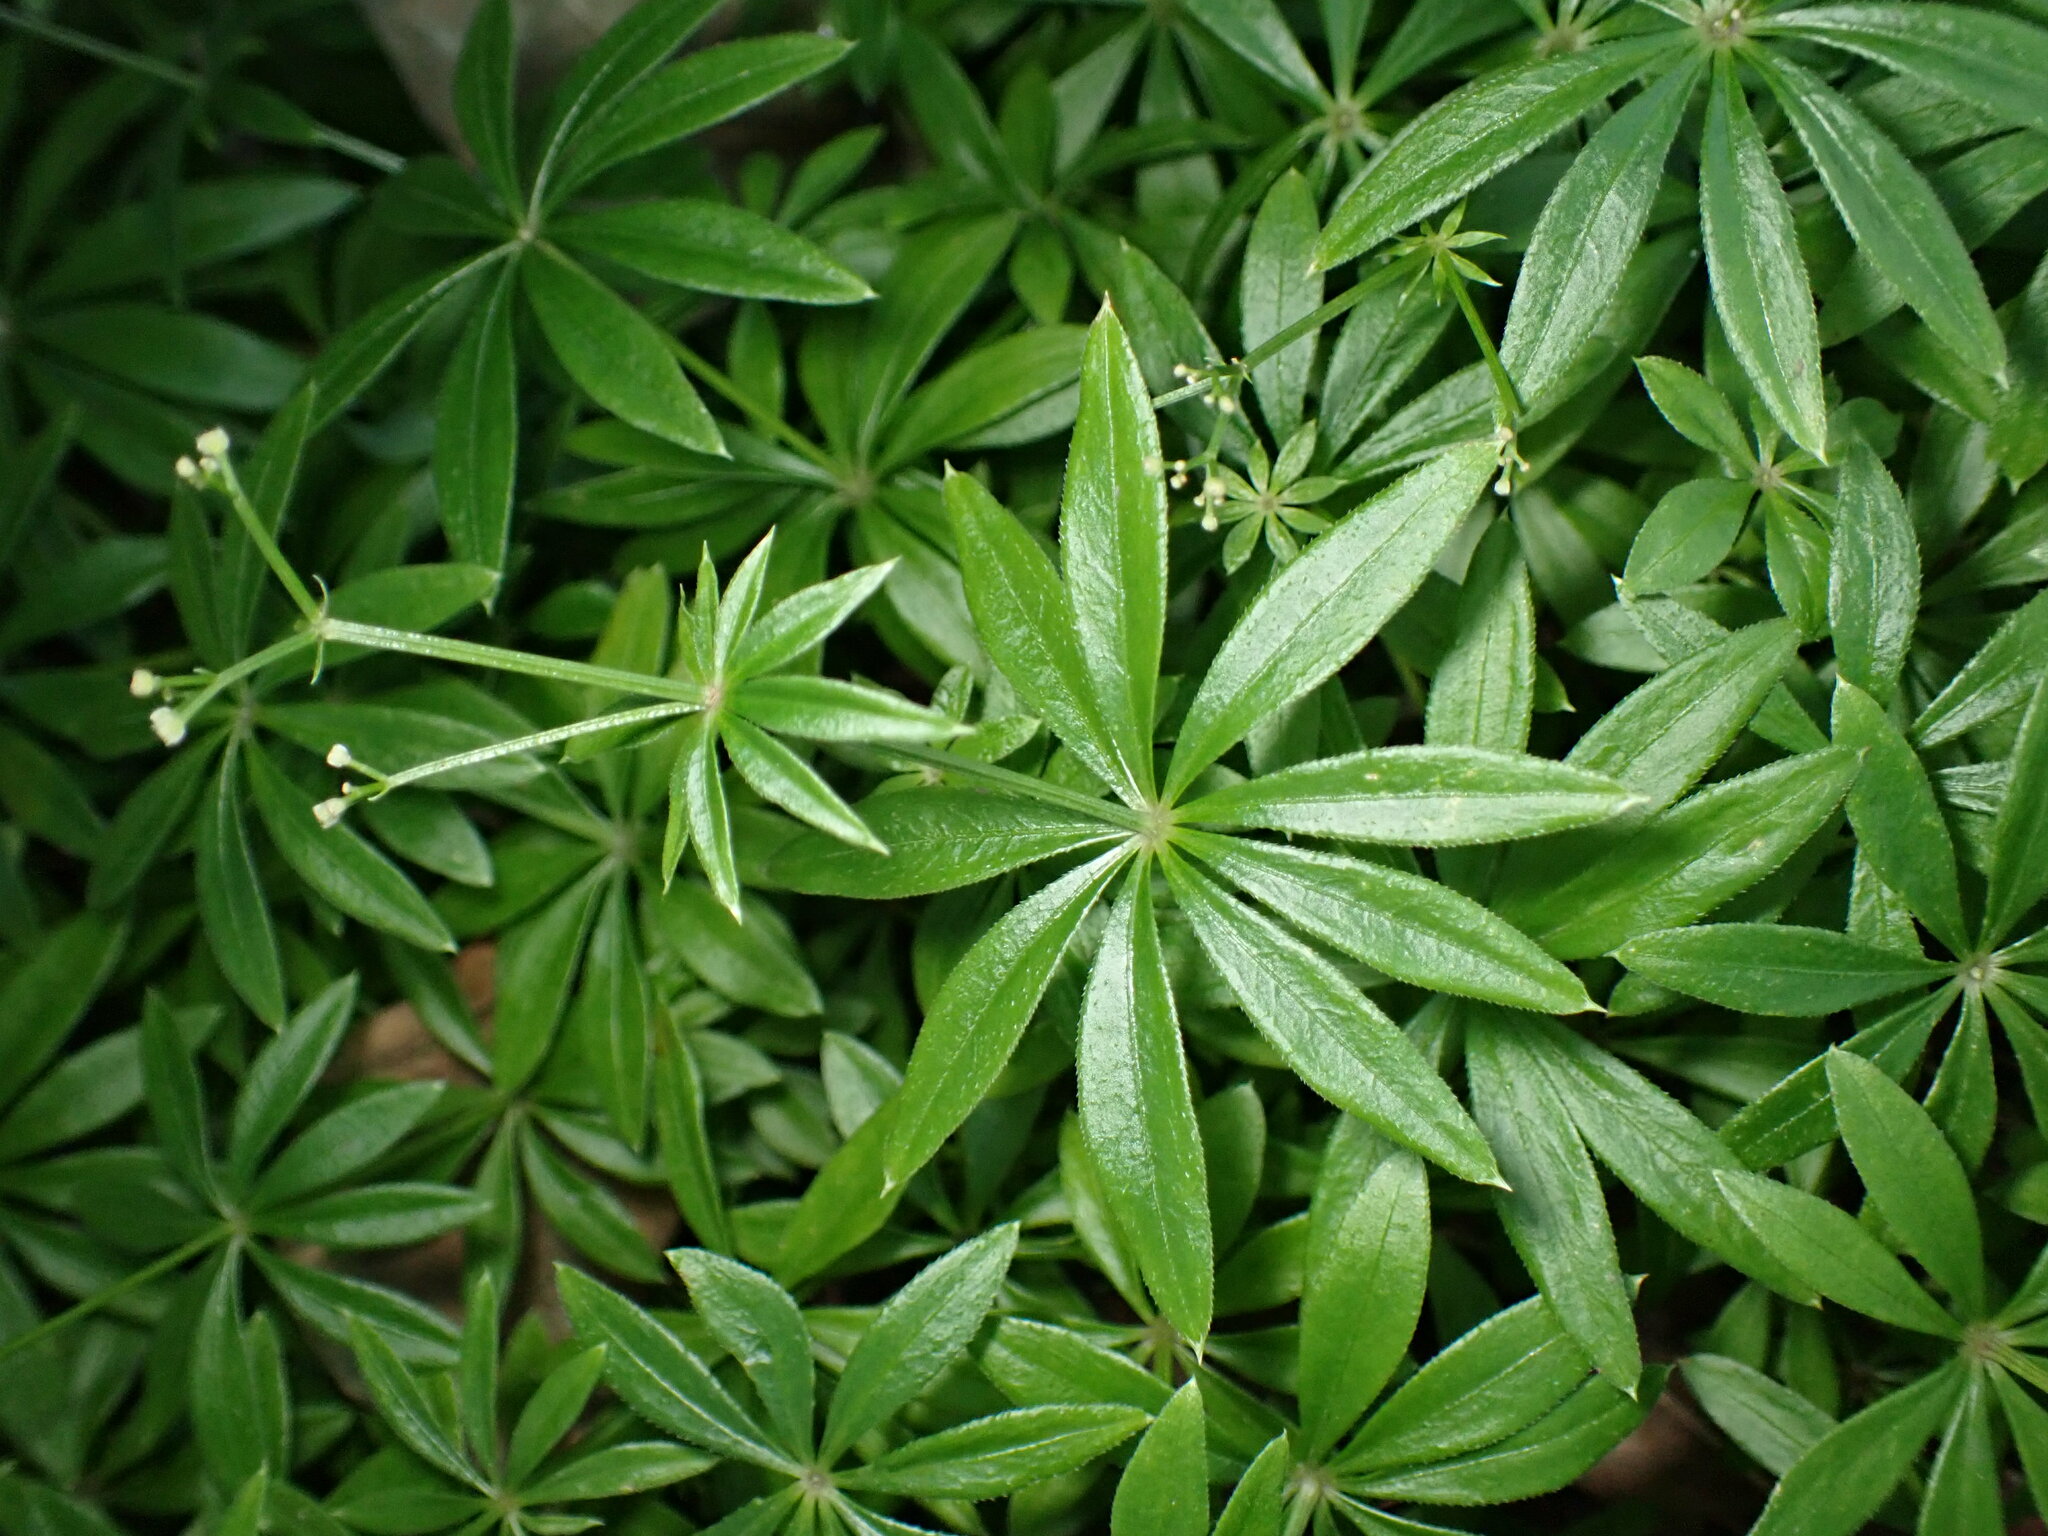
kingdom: Plantae
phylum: Tracheophyta
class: Magnoliopsida
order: Gentianales
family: Rubiaceae
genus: Galium
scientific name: Galium odoratum
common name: Sweet woodruff
